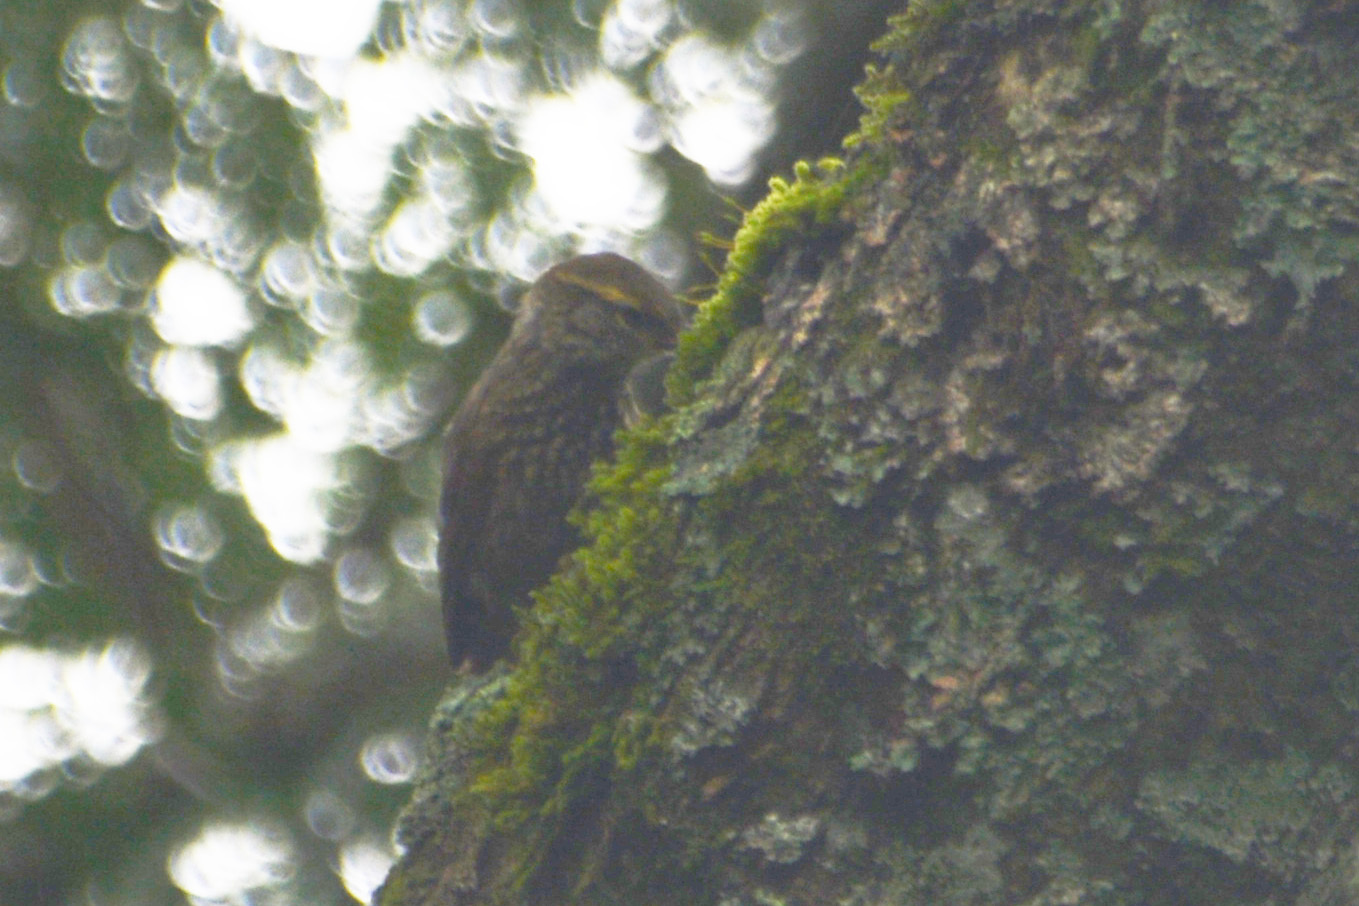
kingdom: Animalia
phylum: Chordata
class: Aves
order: Passeriformes
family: Furnariidae
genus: Syndactyla
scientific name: Syndactyla rufosuperciliata
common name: Buff-browed foliage-gleaner
